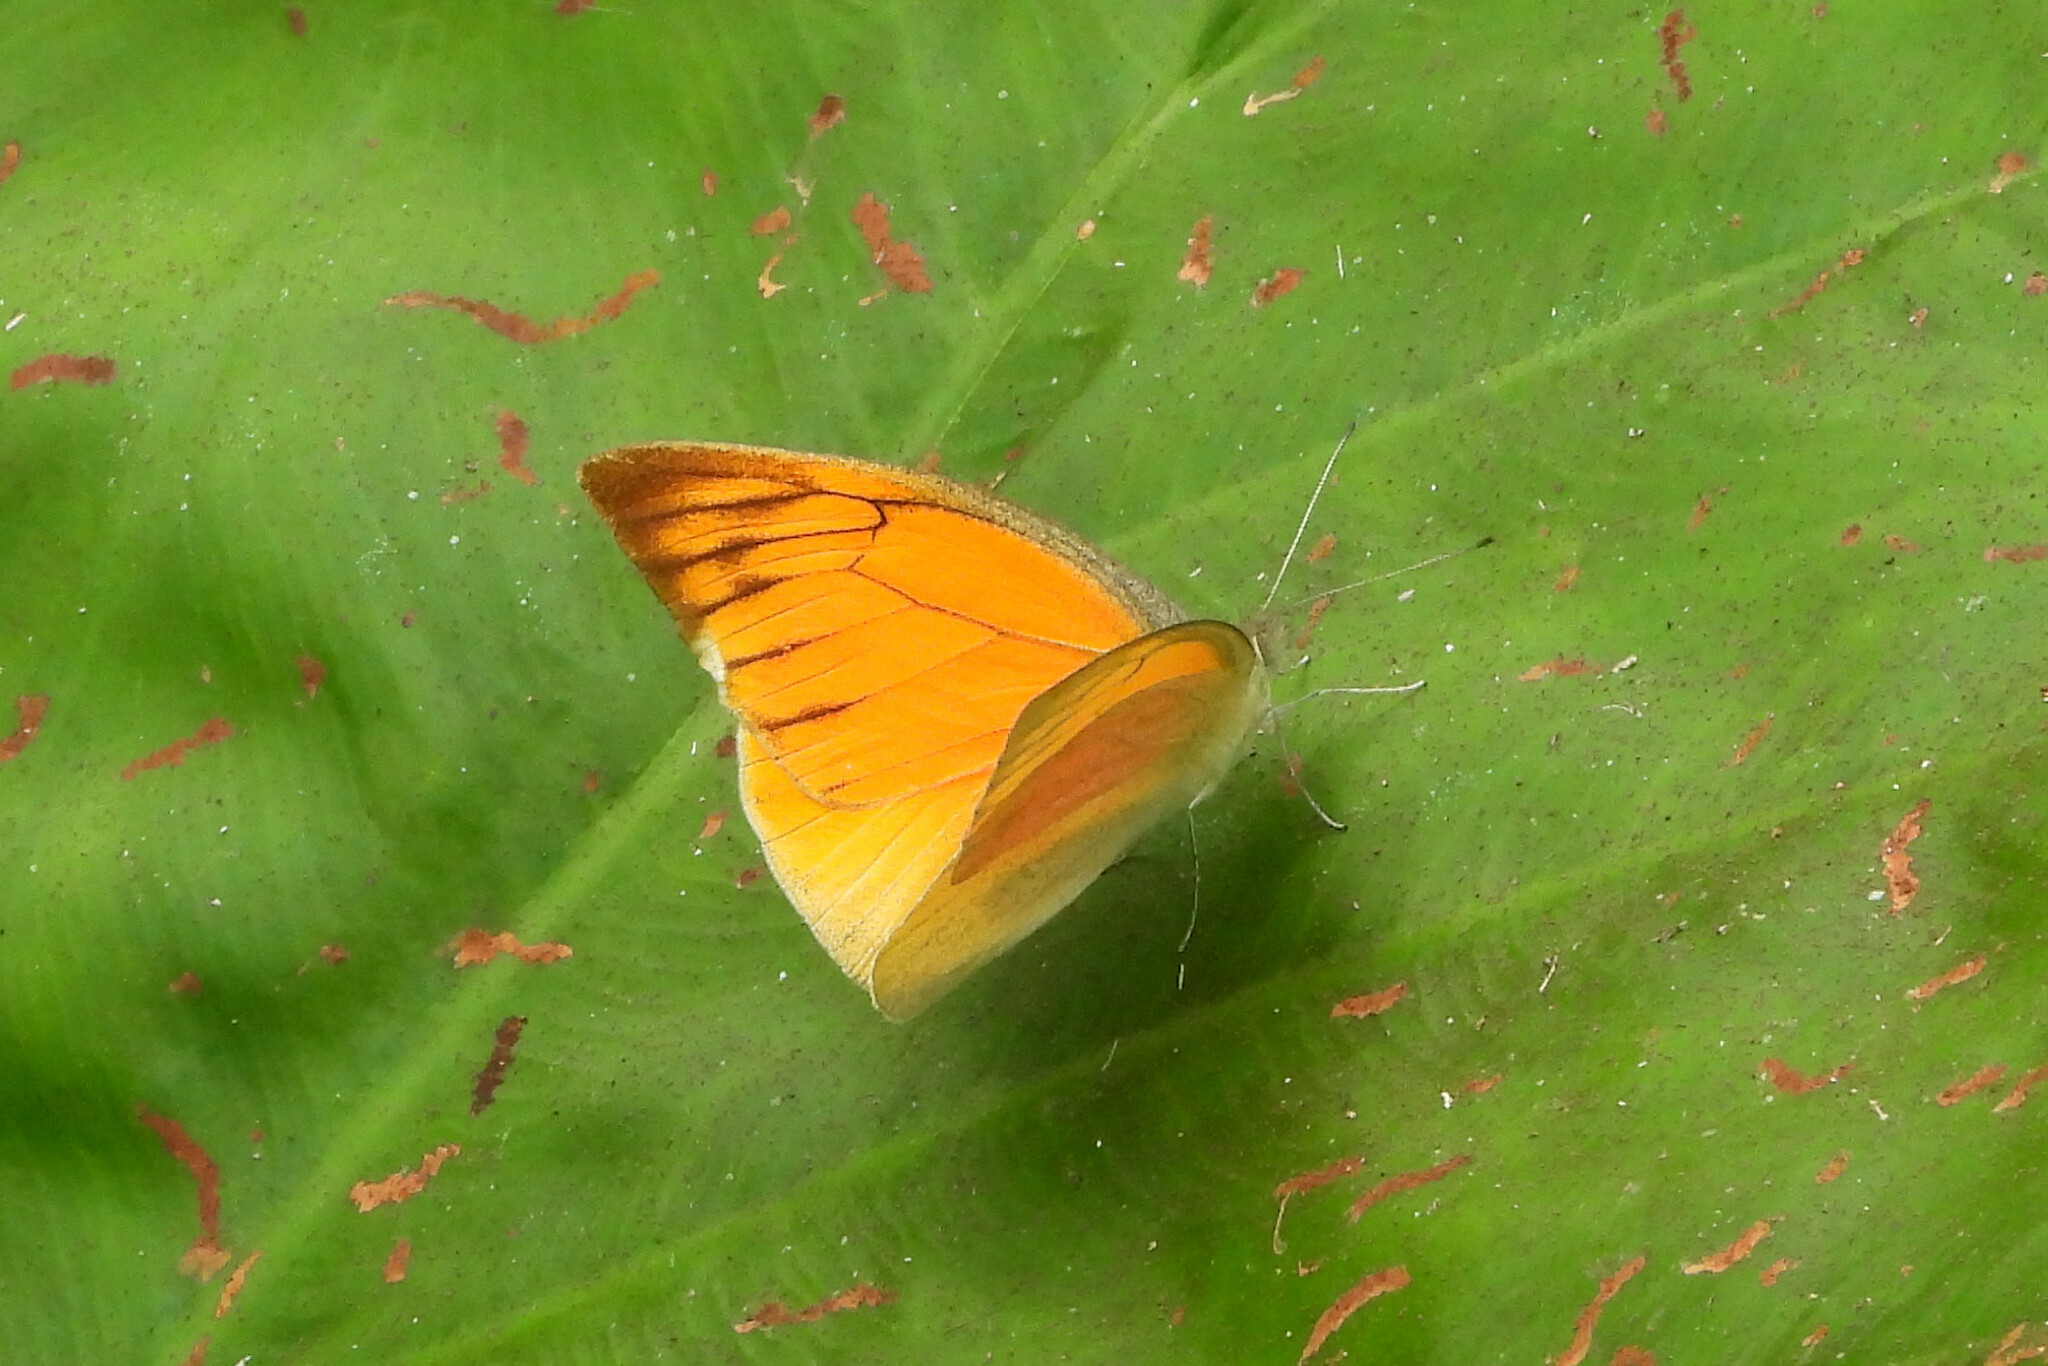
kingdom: Animalia
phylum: Arthropoda
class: Insecta
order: Lepidoptera
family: Pieridae
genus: Appias
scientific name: Appias galba
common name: Indian orange albatross
